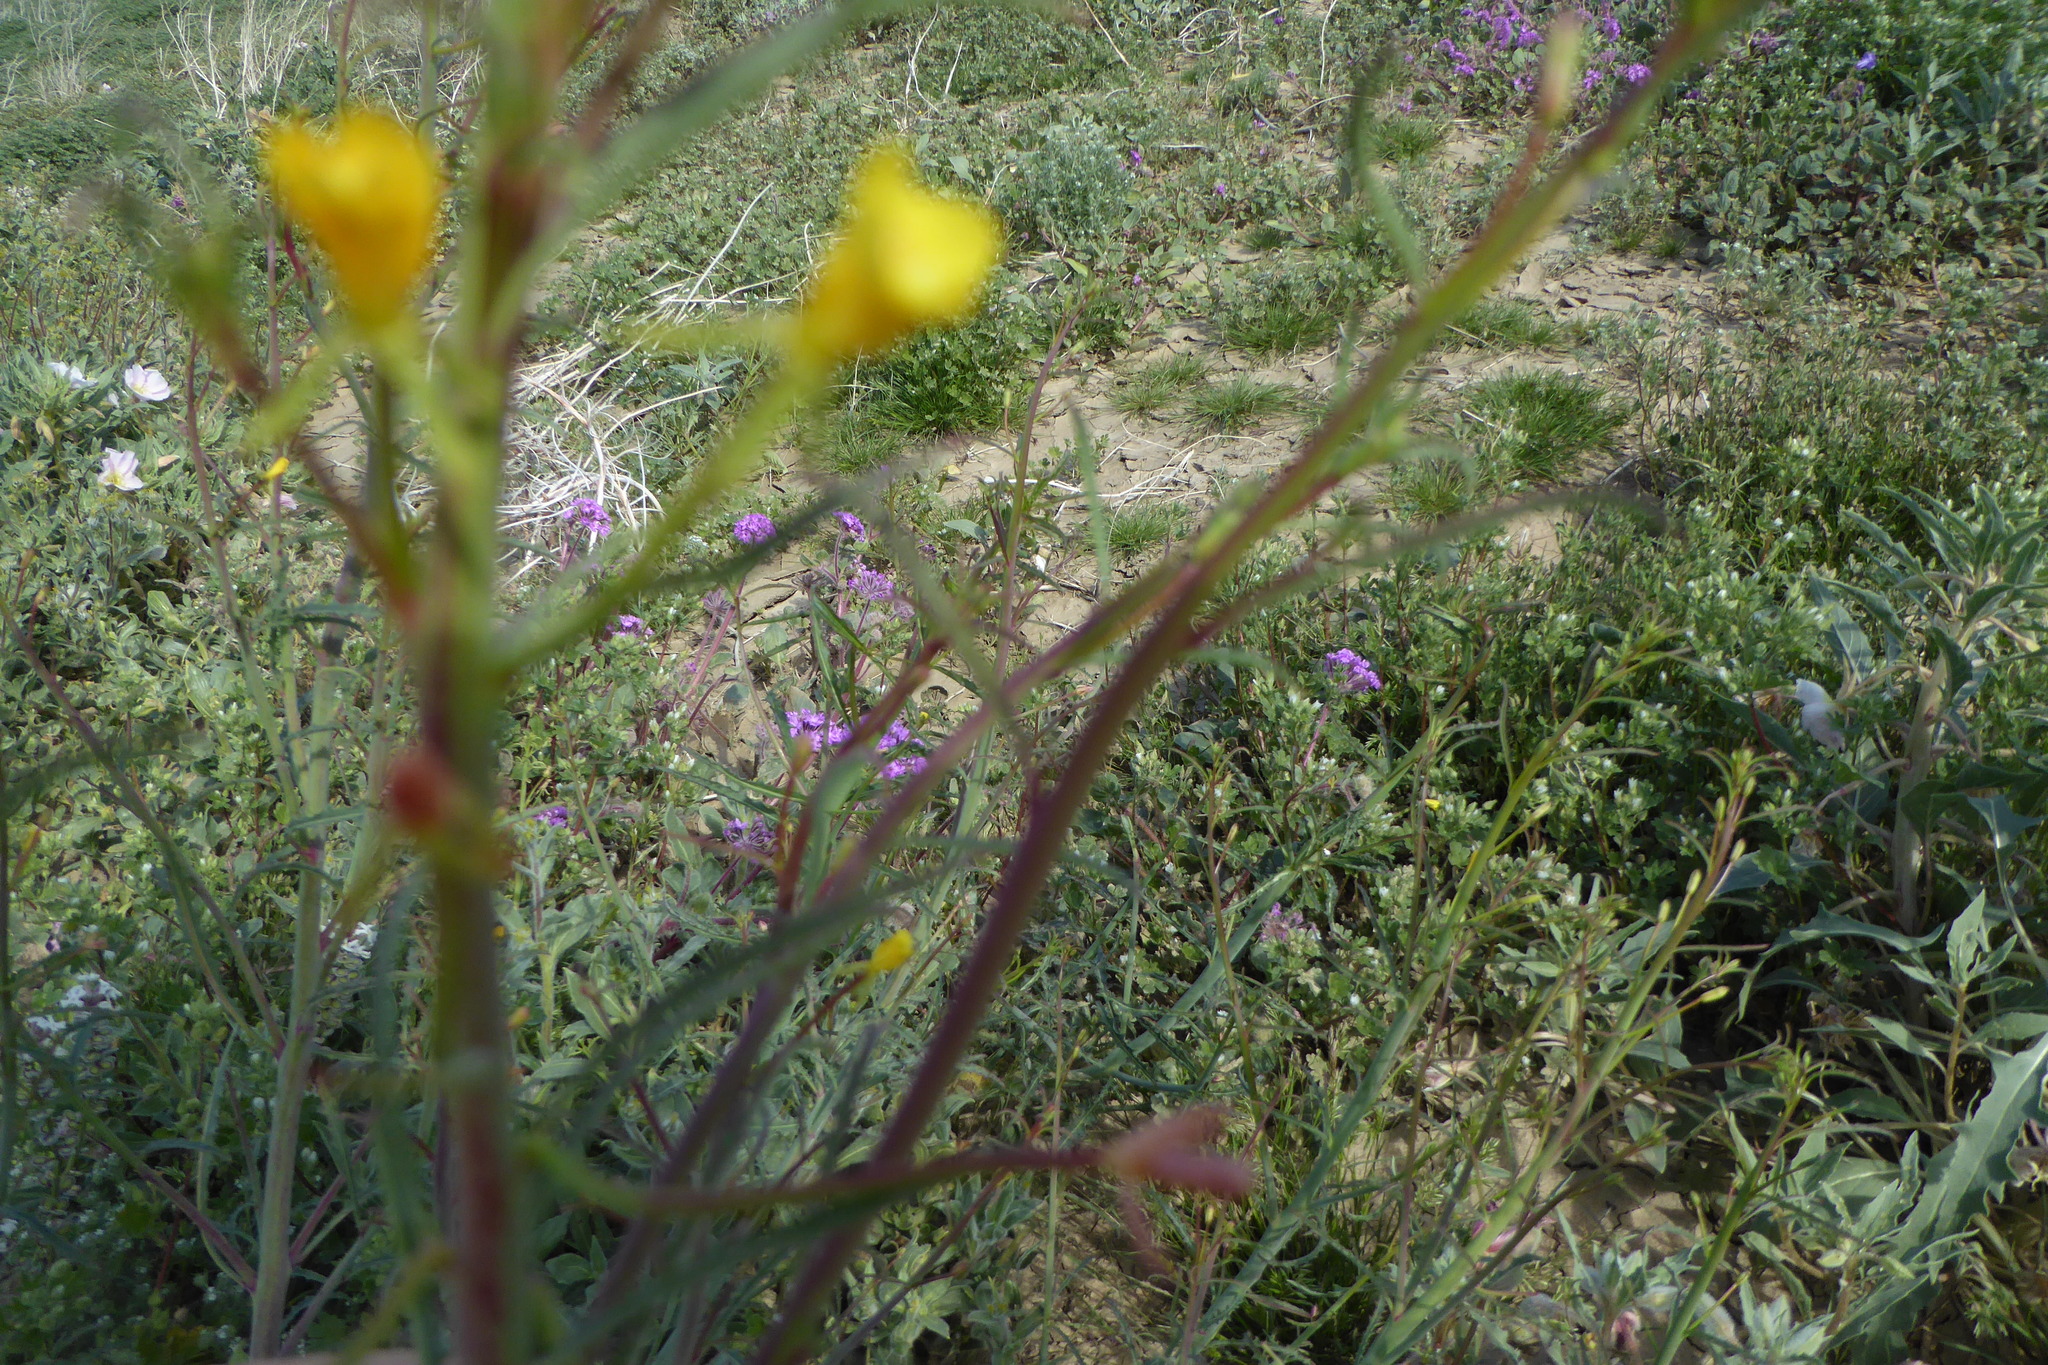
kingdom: Plantae
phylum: Tracheophyta
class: Magnoliopsida
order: Myrtales
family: Onagraceae
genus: Eulobus
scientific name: Eulobus californicus
